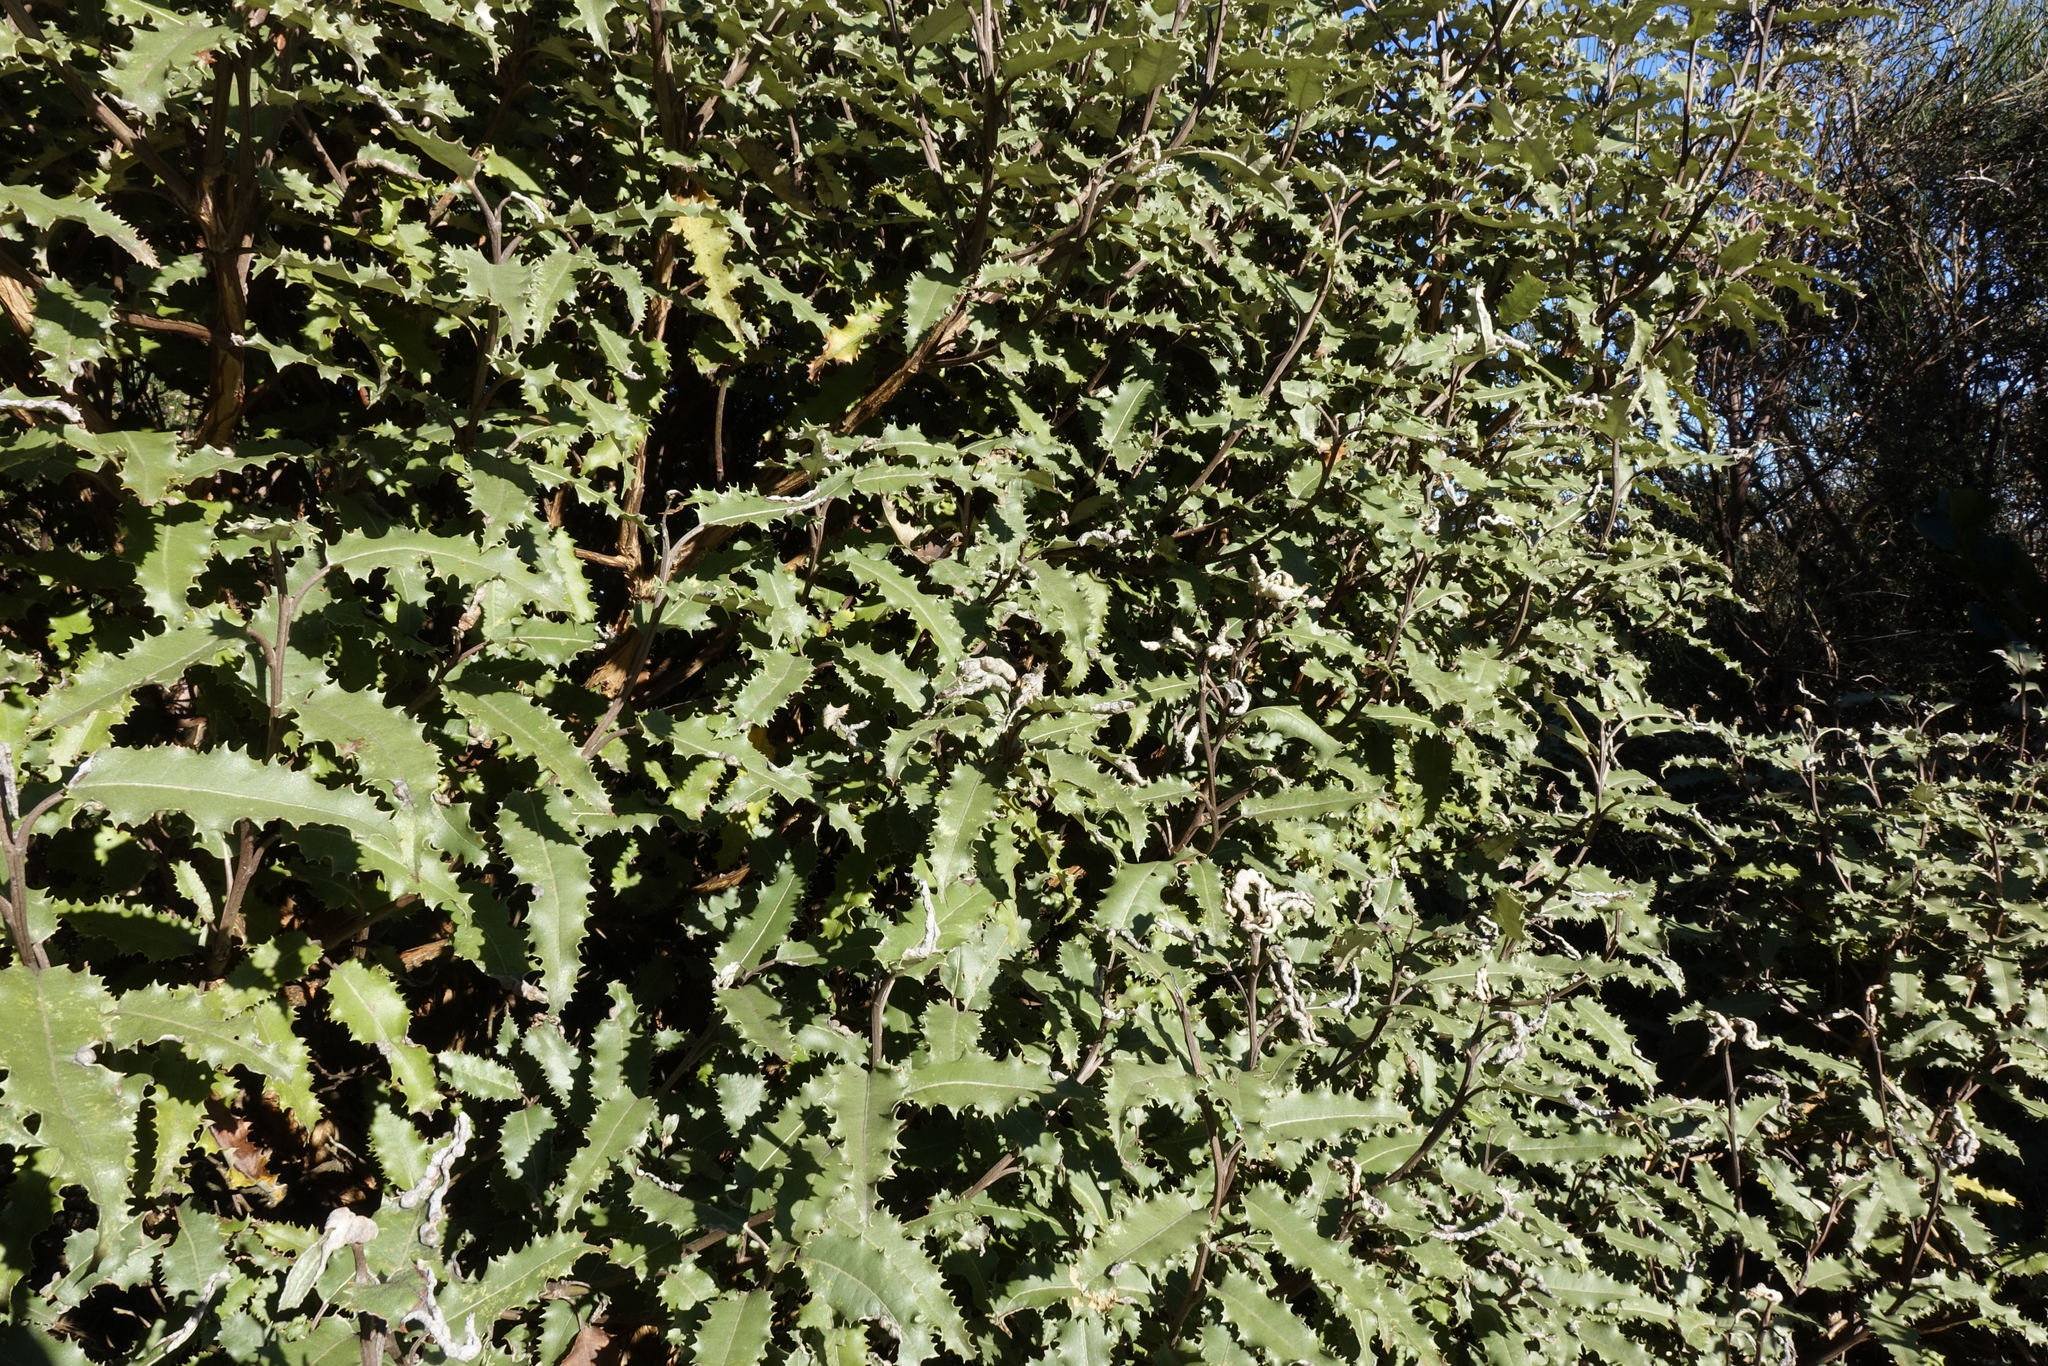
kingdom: Plantae
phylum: Tracheophyta
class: Magnoliopsida
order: Asterales
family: Asteraceae
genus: Olearia
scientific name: Olearia ilicifolia
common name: Maori-holly
